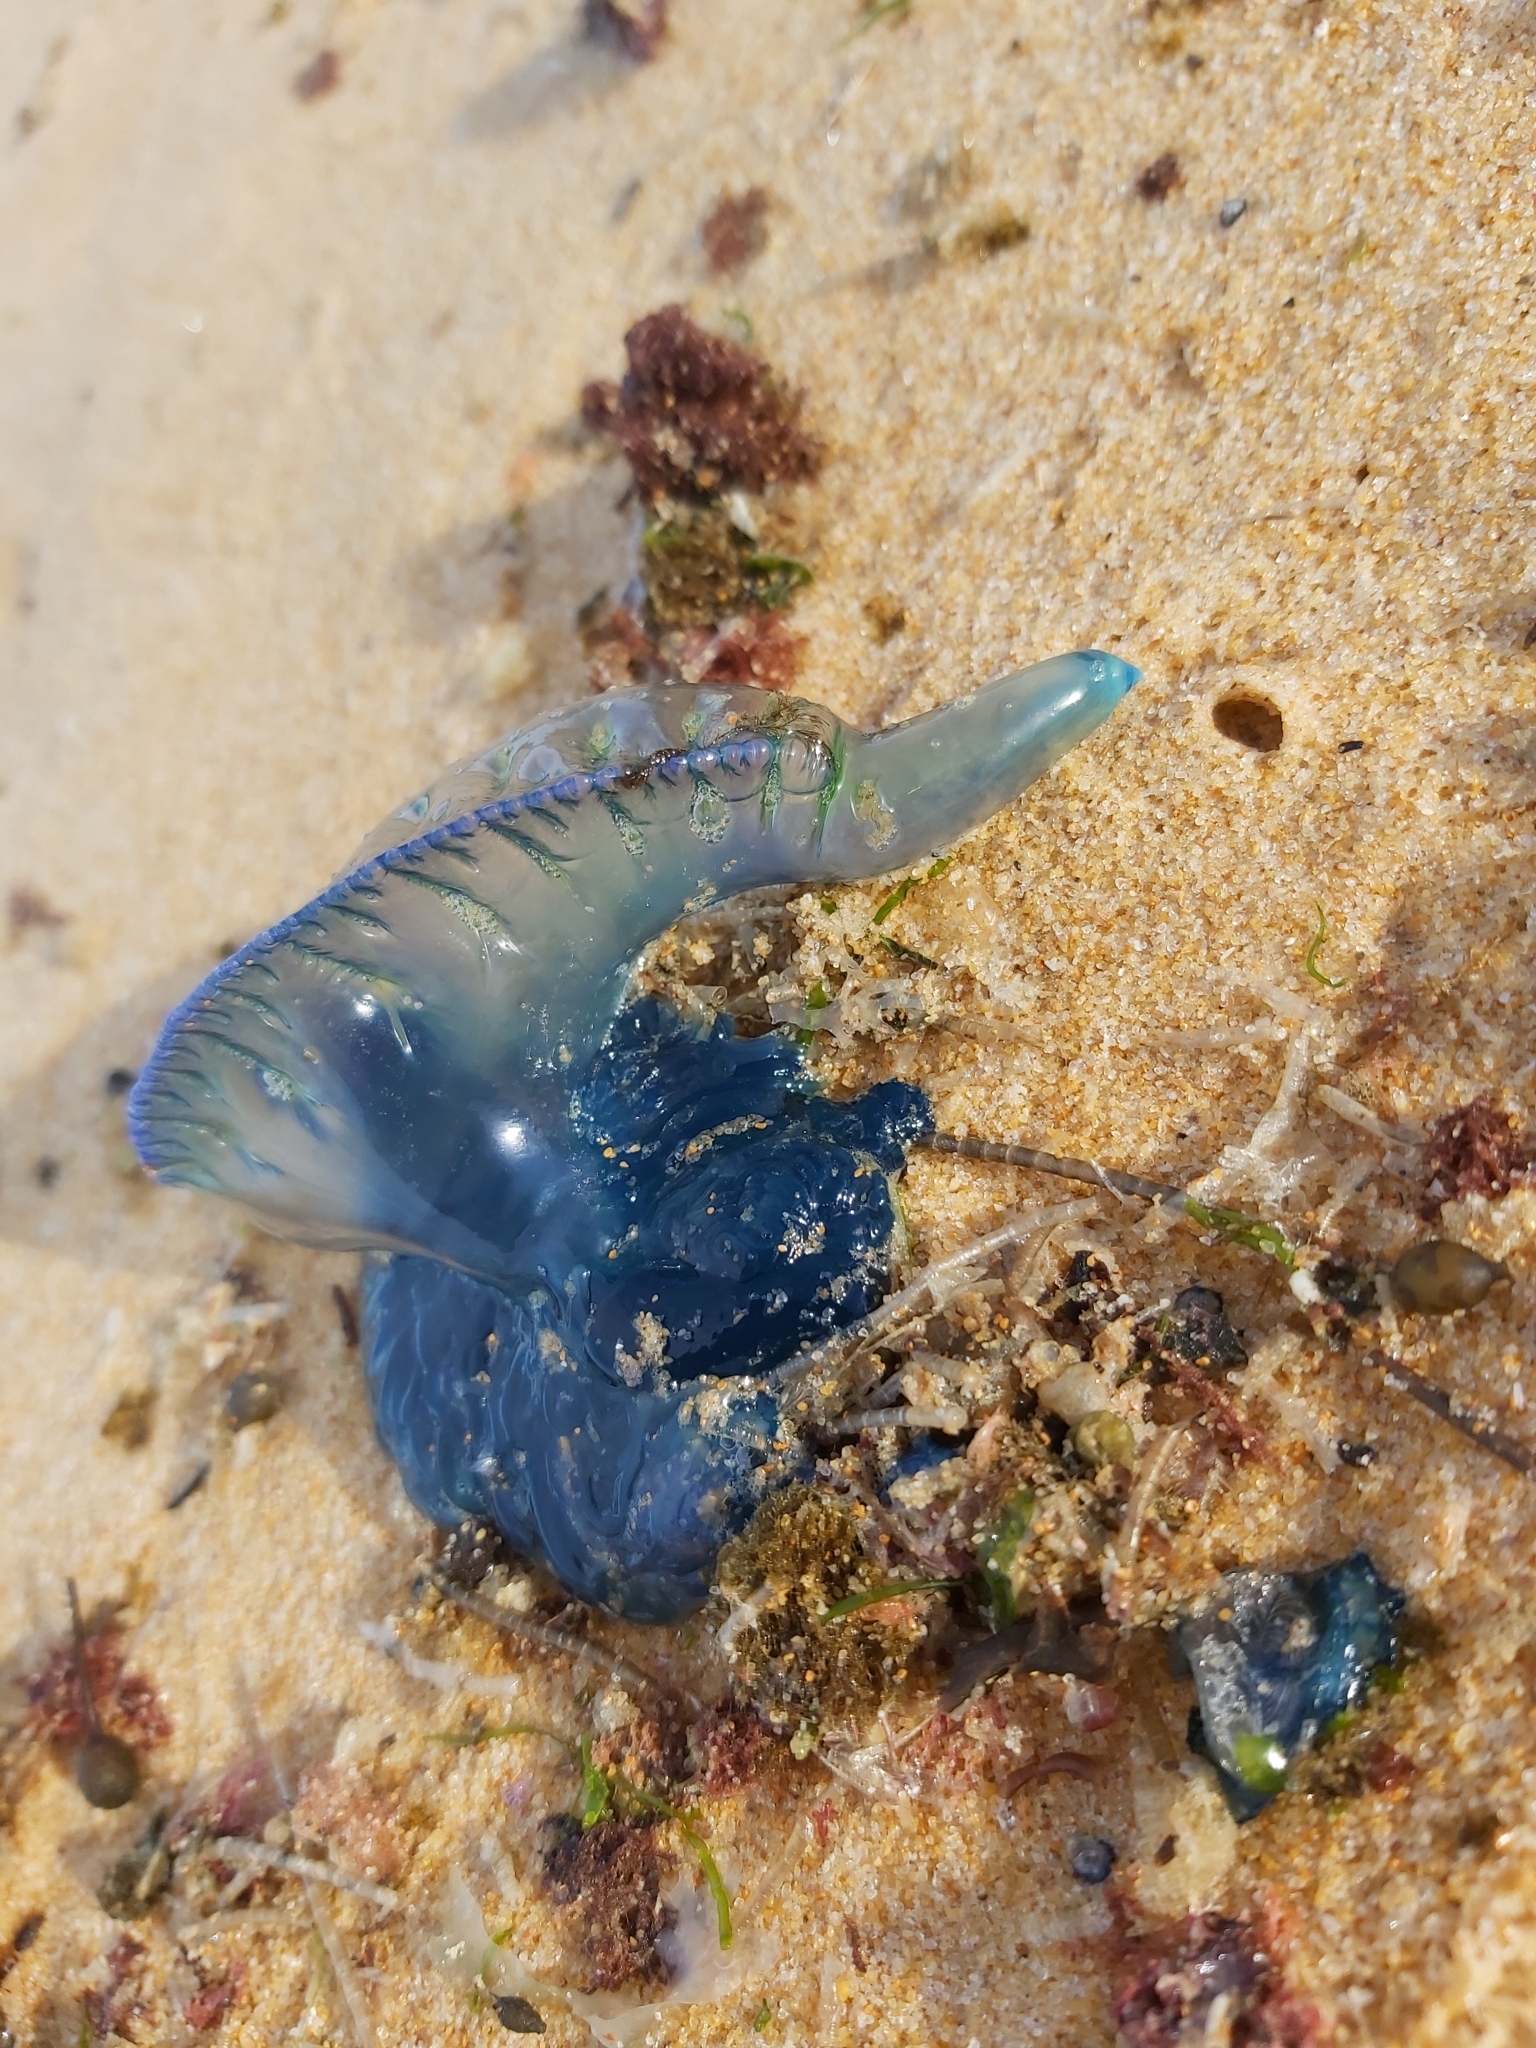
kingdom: Animalia
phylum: Cnidaria
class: Hydrozoa
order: Siphonophorae
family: Physaliidae
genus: Physalia
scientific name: Physalia physalis
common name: Portuguese man-of-war
